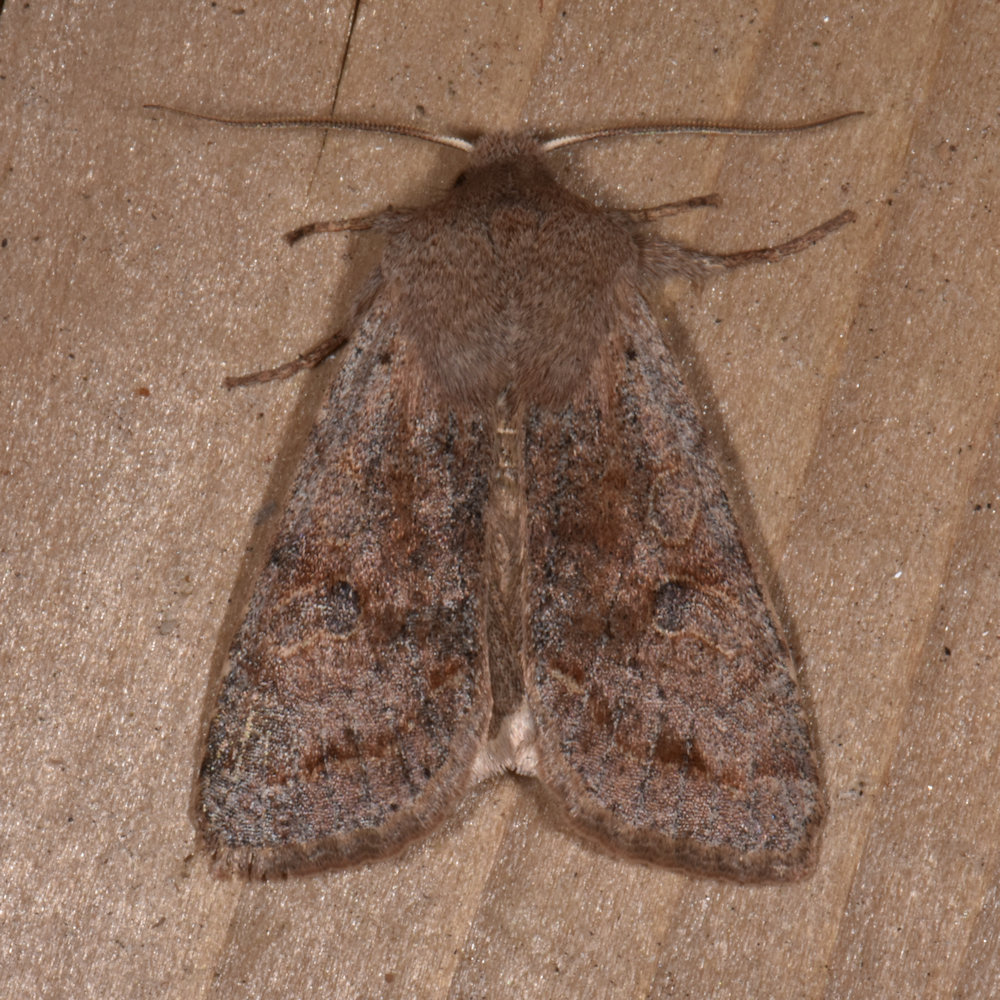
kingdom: Animalia
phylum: Arthropoda
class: Insecta
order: Lepidoptera
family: Noctuidae
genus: Orthosia
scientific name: Orthosia hibisci
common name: Green fruitworm
